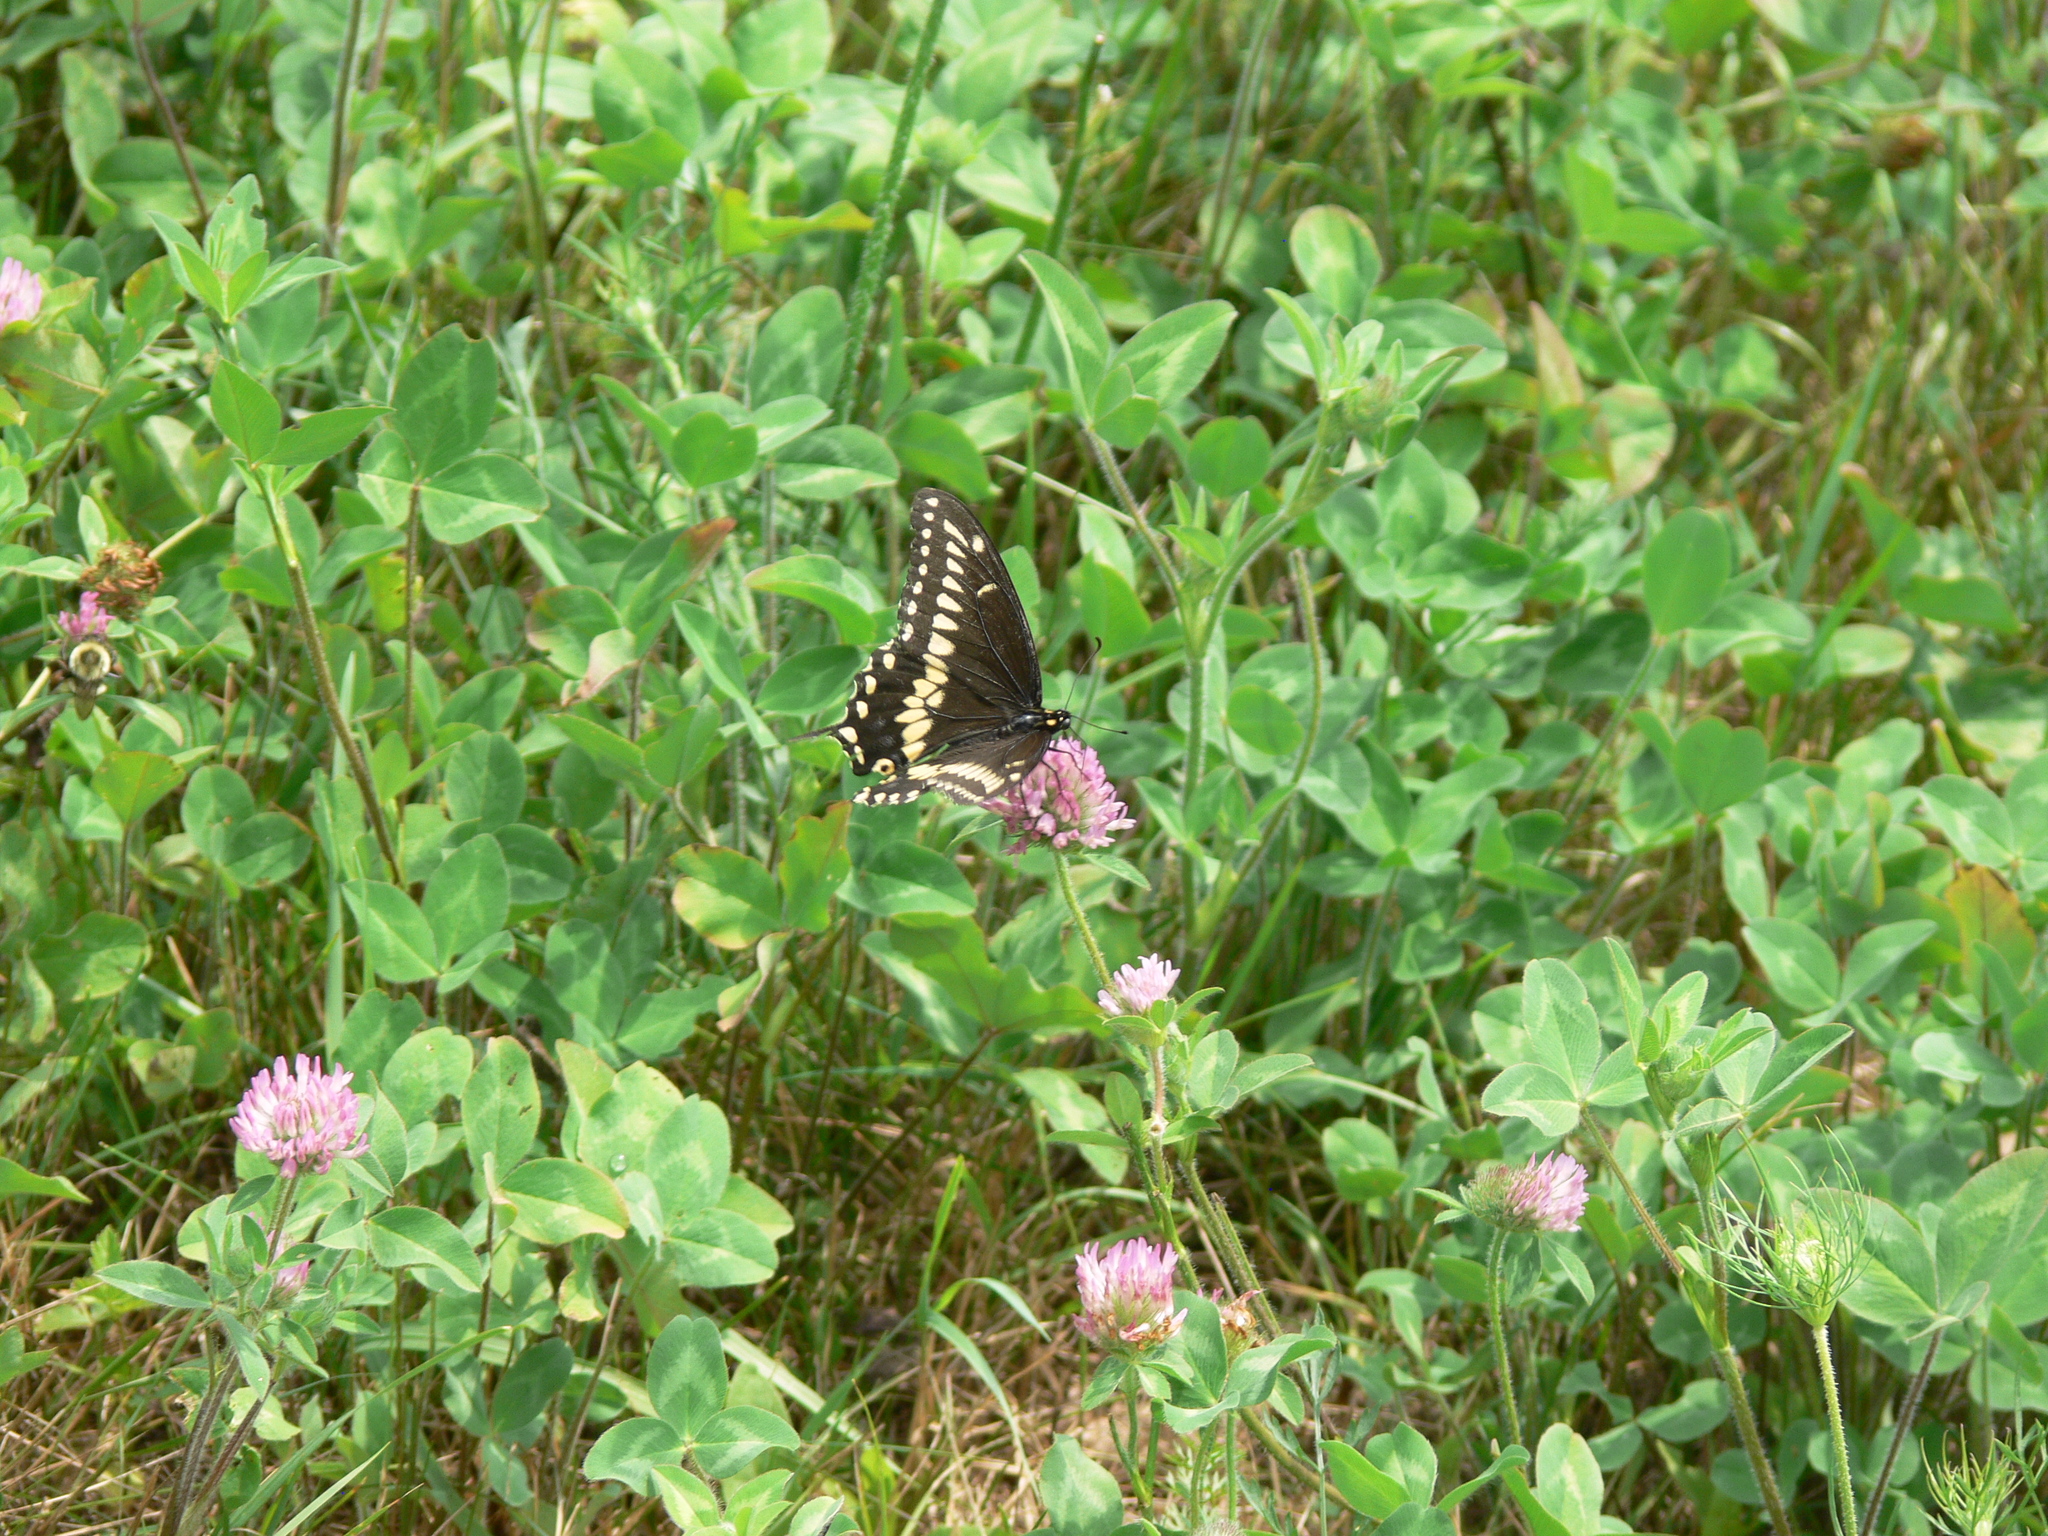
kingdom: Animalia
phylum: Arthropoda
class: Insecta
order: Lepidoptera
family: Papilionidae
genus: Papilio
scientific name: Papilio polyxenes
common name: Black swallowtail
